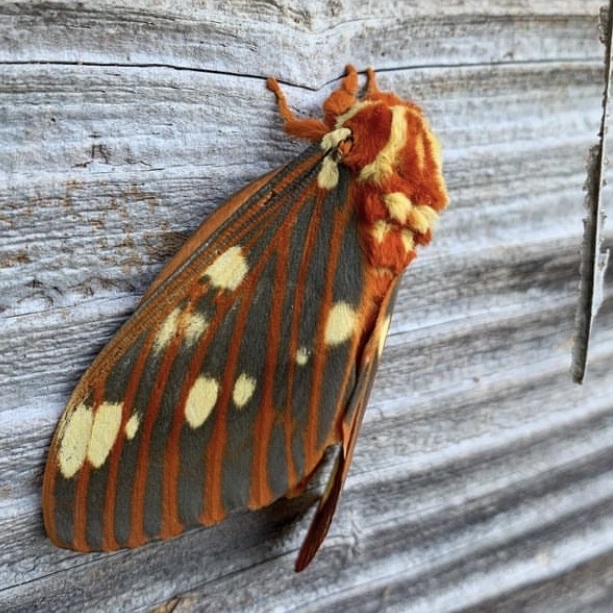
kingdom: Animalia
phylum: Arthropoda
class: Insecta
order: Lepidoptera
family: Saturniidae
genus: Citheronia
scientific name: Citheronia regalis
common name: Hickory horned devil
